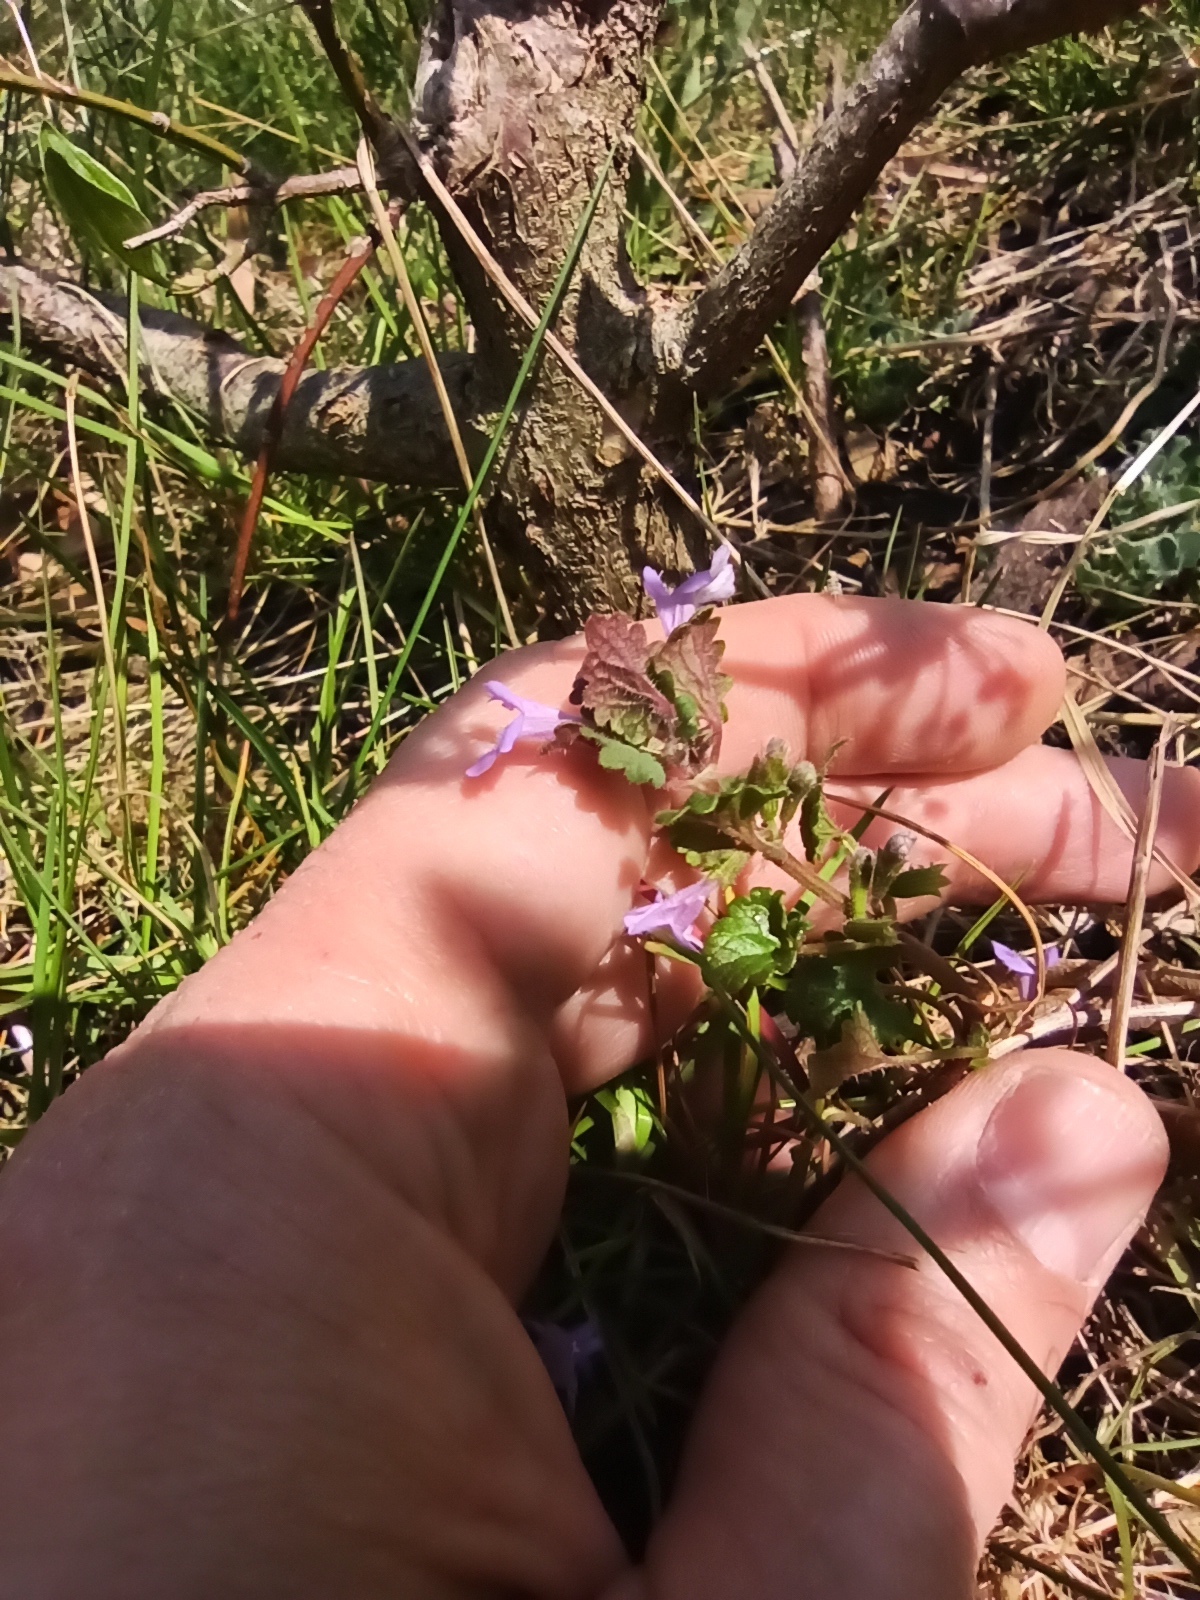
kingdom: Plantae
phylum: Tracheophyta
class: Magnoliopsida
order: Lamiales
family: Lamiaceae
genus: Glechoma
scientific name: Glechoma hederacea
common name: Ground ivy
